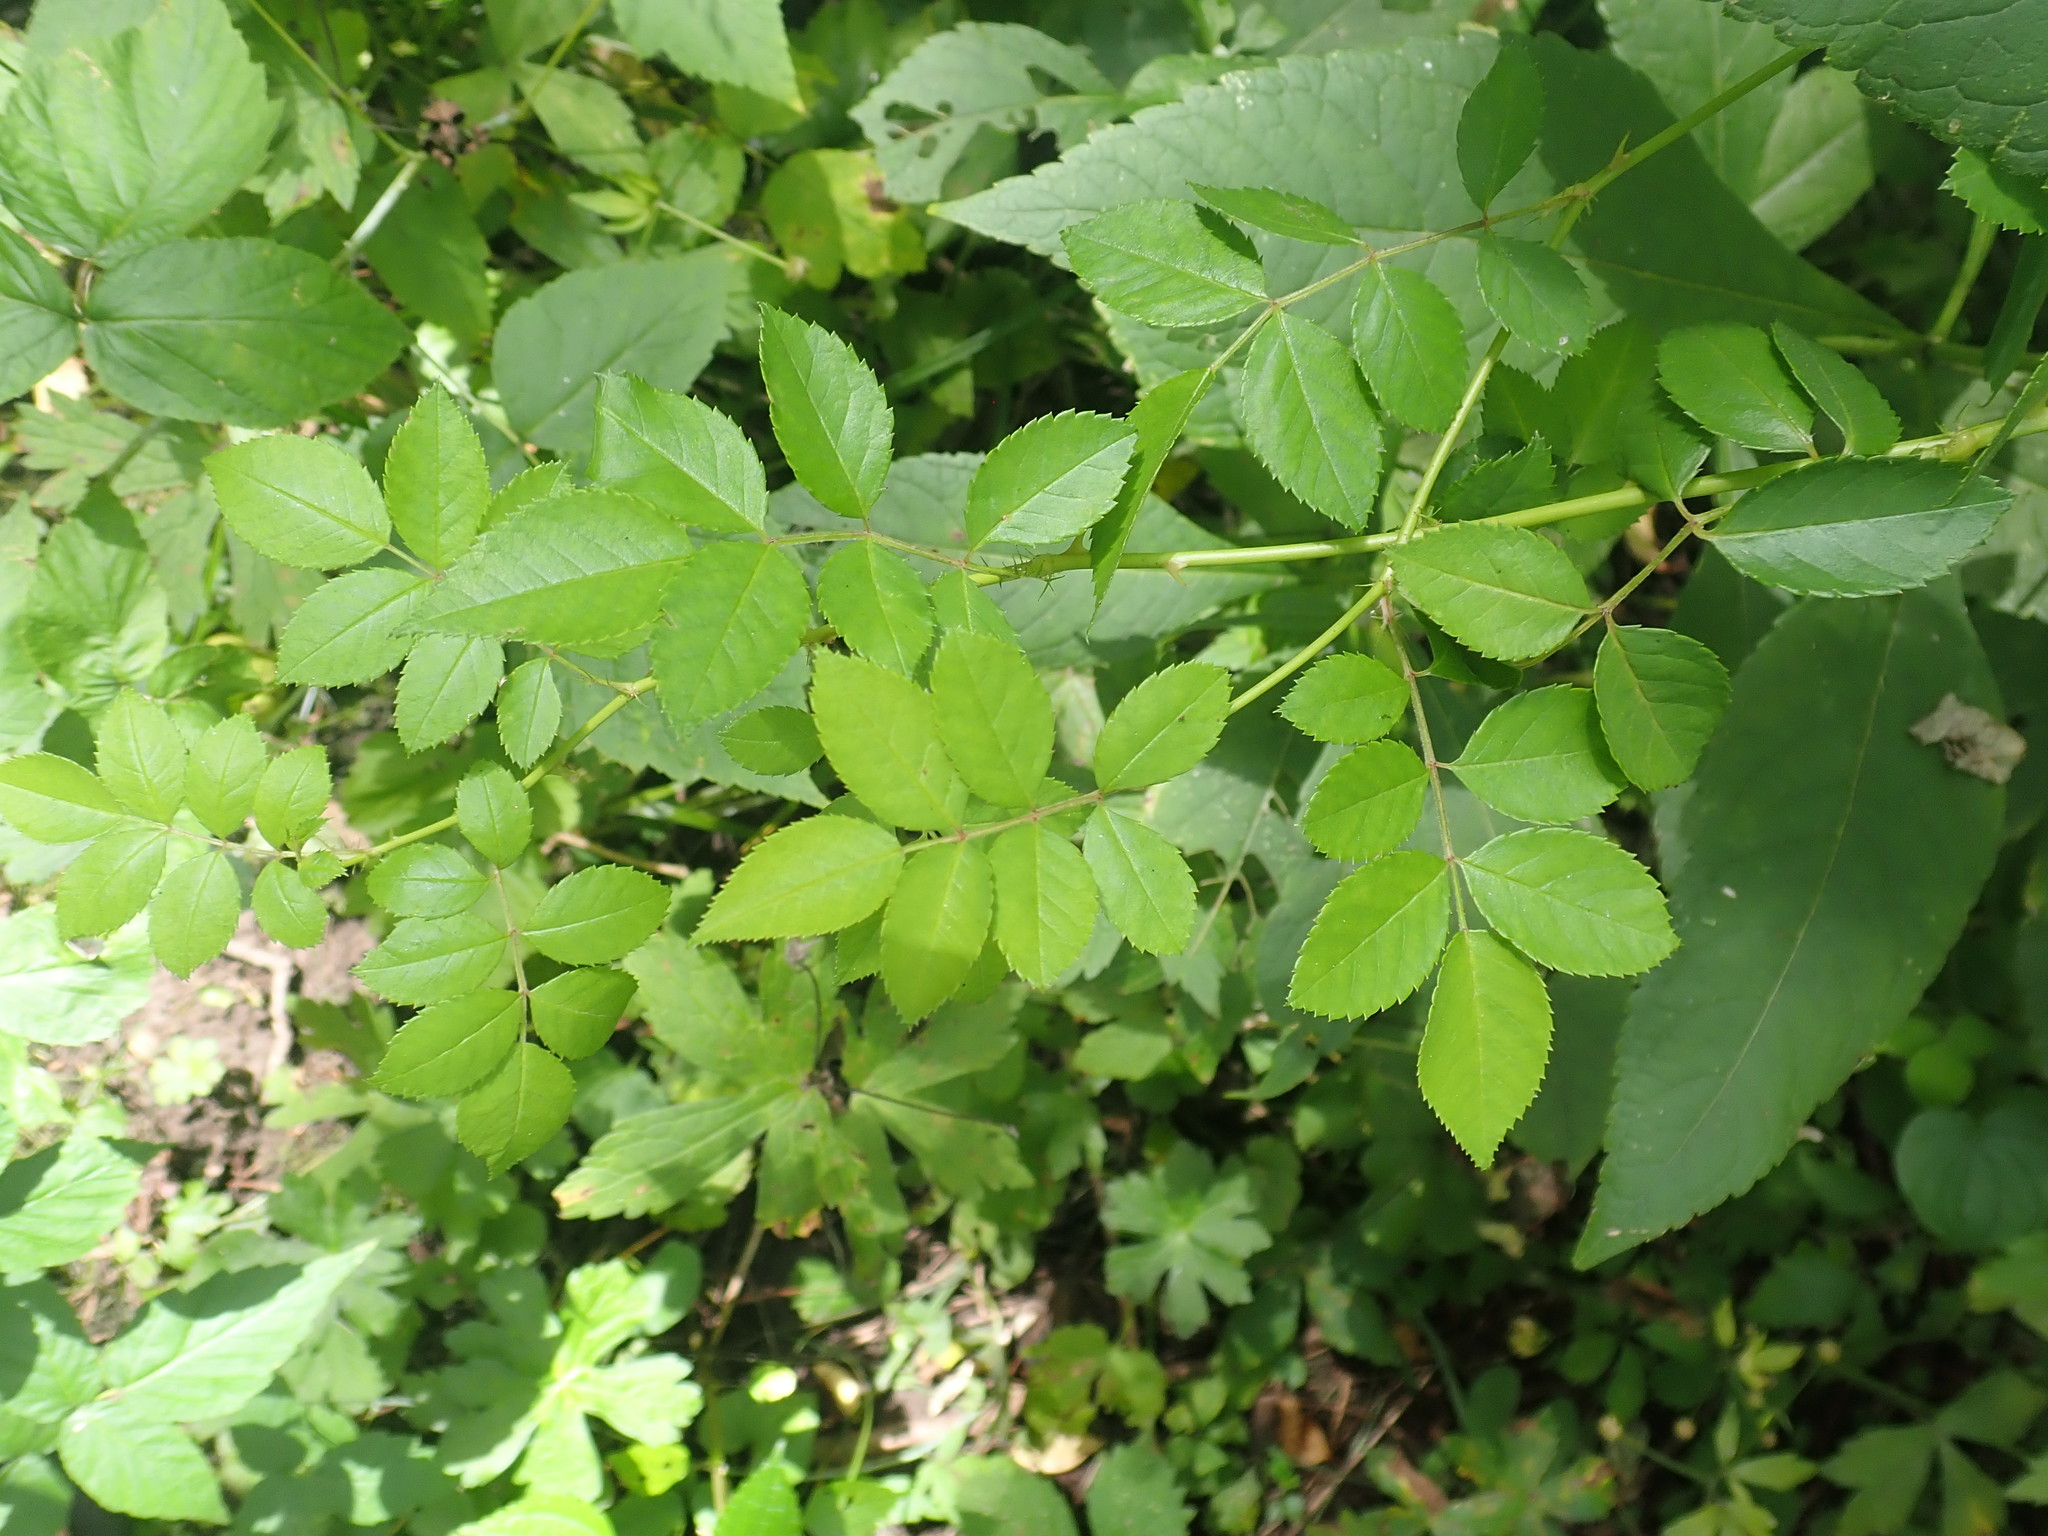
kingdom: Plantae
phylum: Tracheophyta
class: Magnoliopsida
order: Rosales
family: Rosaceae
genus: Rosa
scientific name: Rosa multiflora
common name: Multiflora rose
